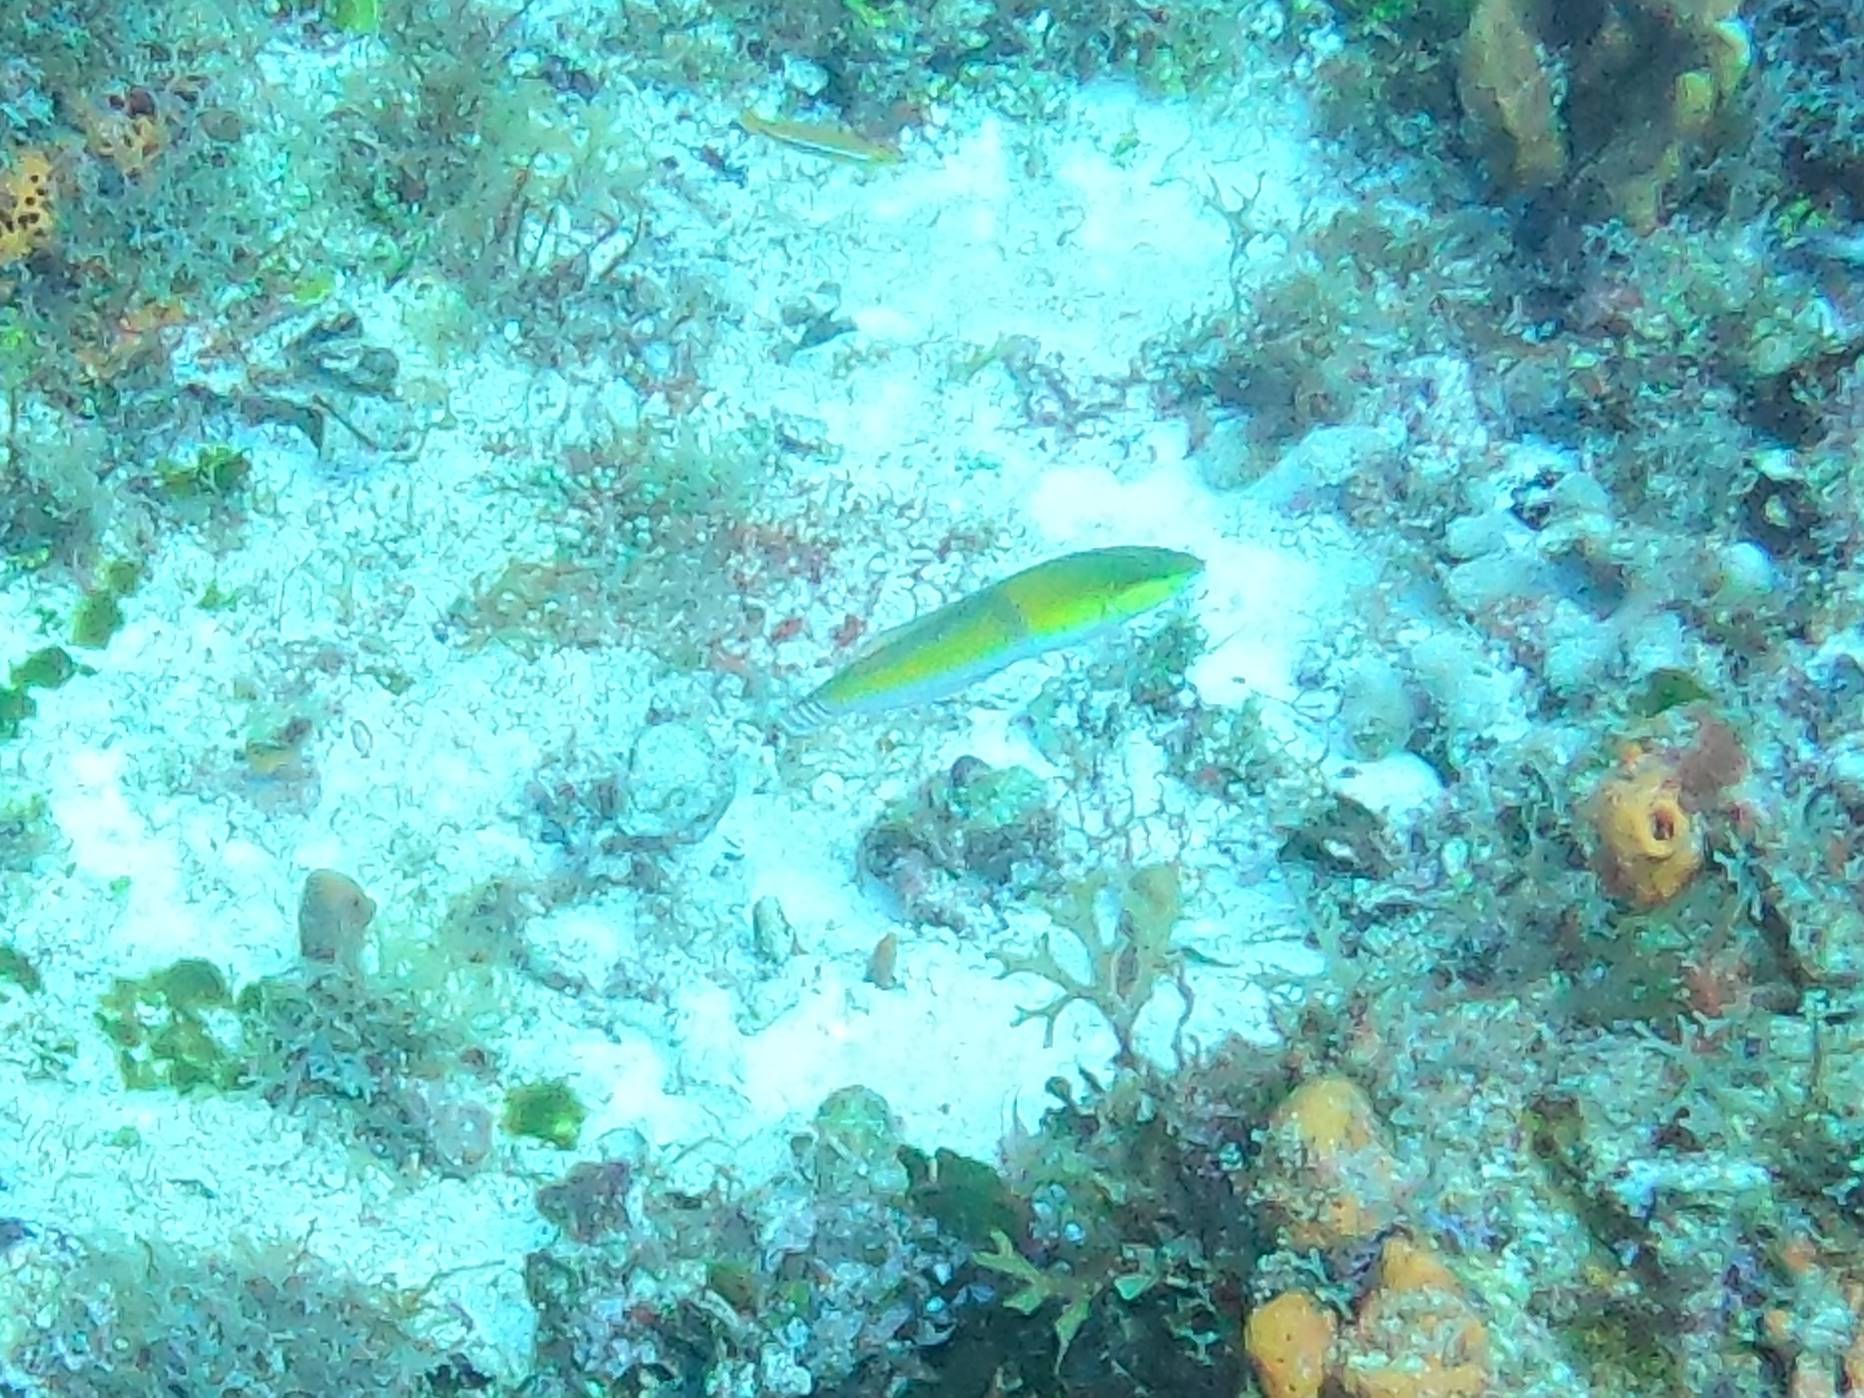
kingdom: Animalia
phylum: Chordata
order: Perciformes
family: Labridae
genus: Halichoeres
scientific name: Halichoeres garnoti
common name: Yellowhead wrasse
